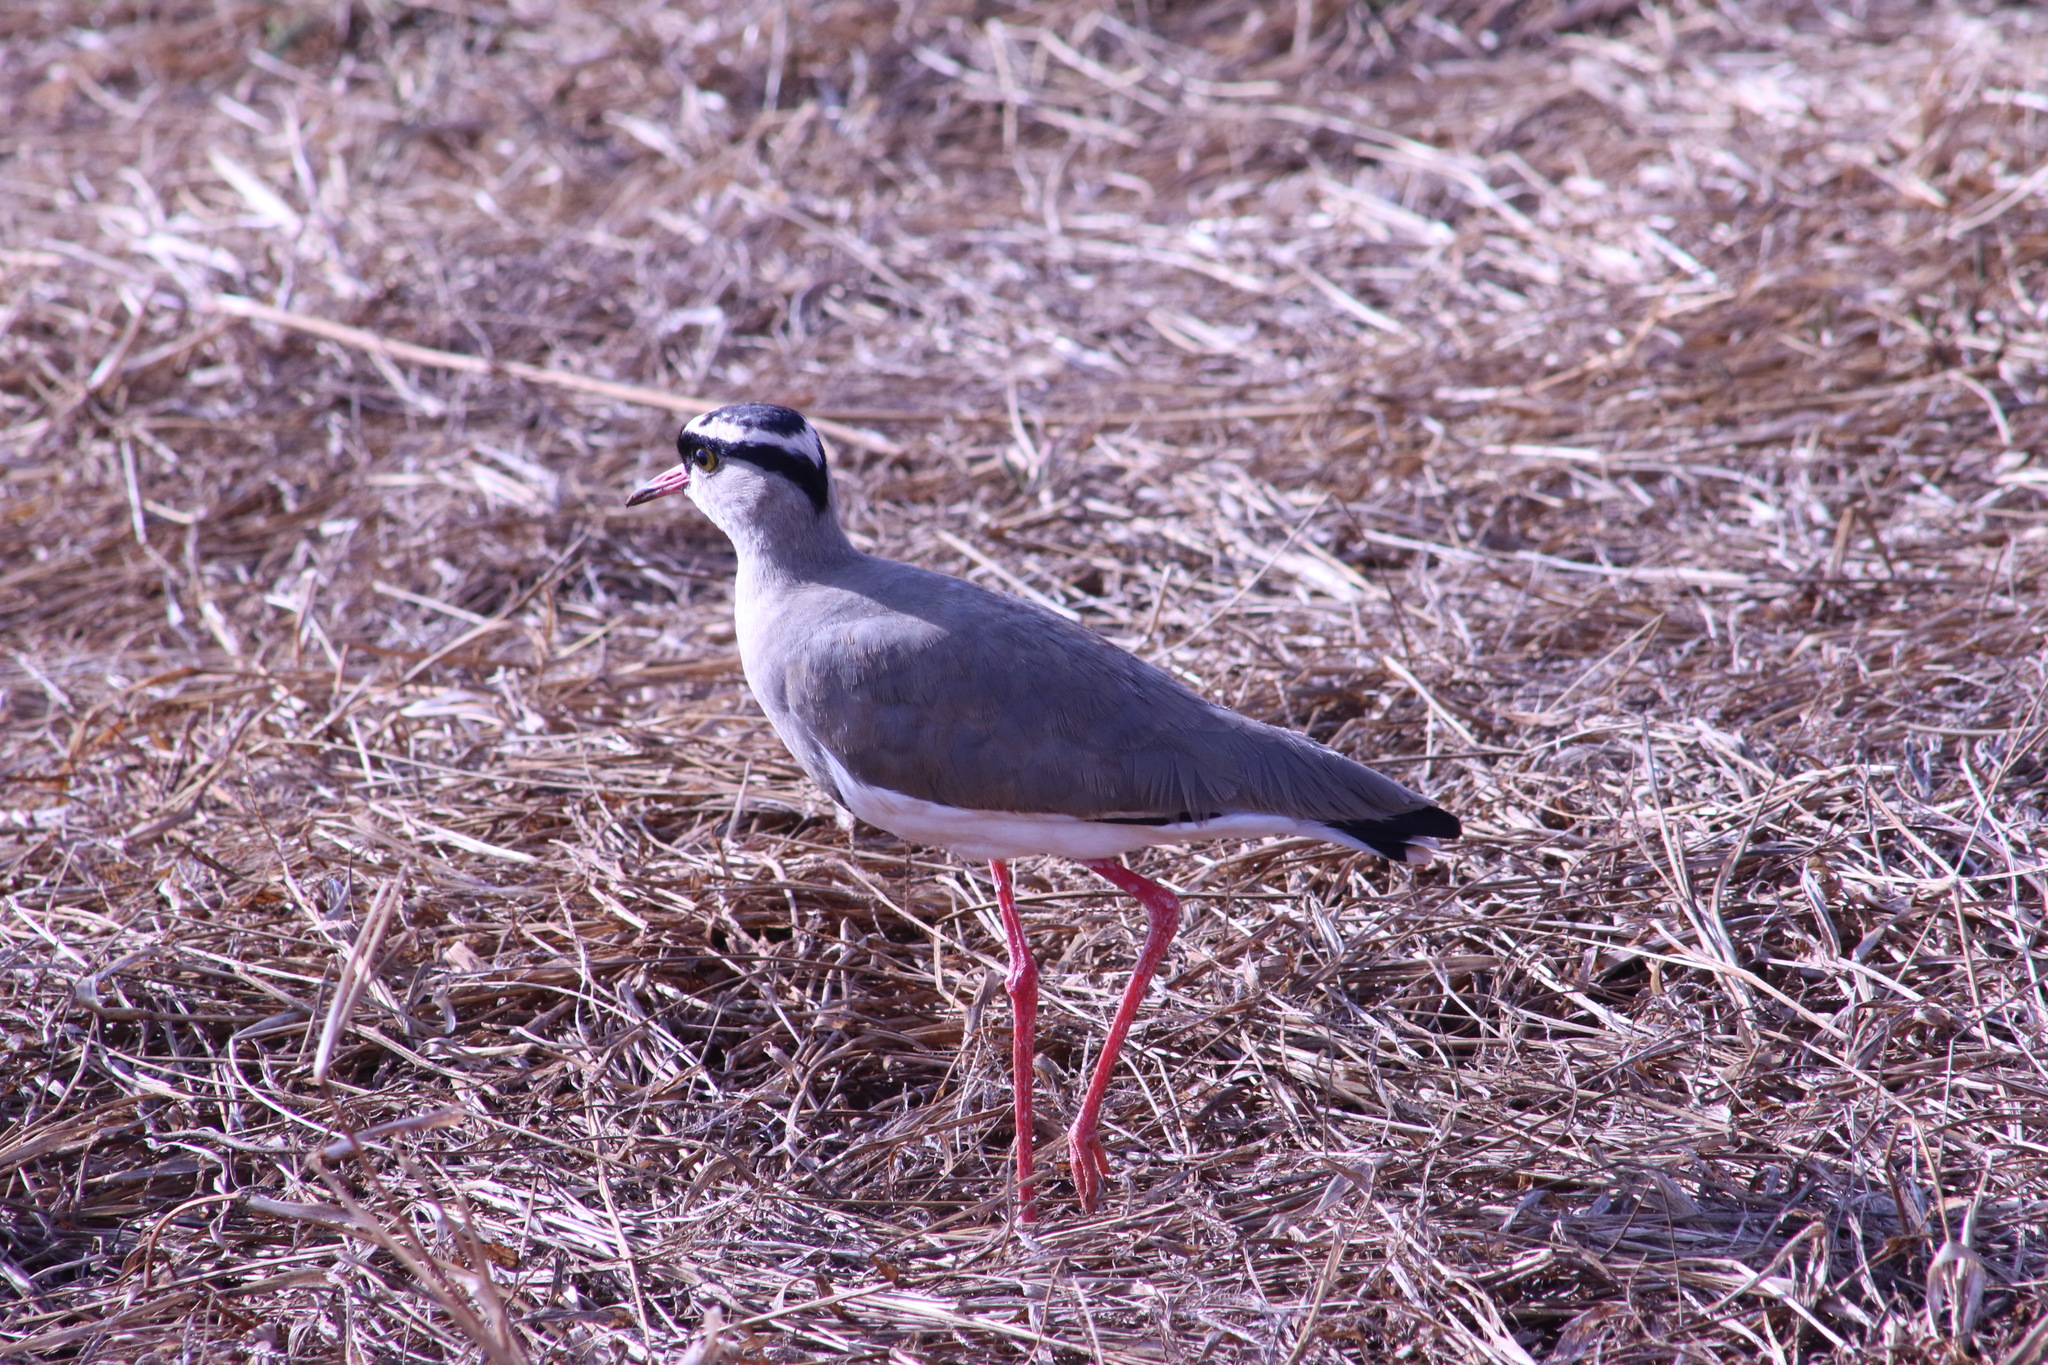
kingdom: Animalia
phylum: Chordata
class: Aves
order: Charadriiformes
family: Charadriidae
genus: Vanellus
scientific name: Vanellus coronatus
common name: Crowned lapwing
